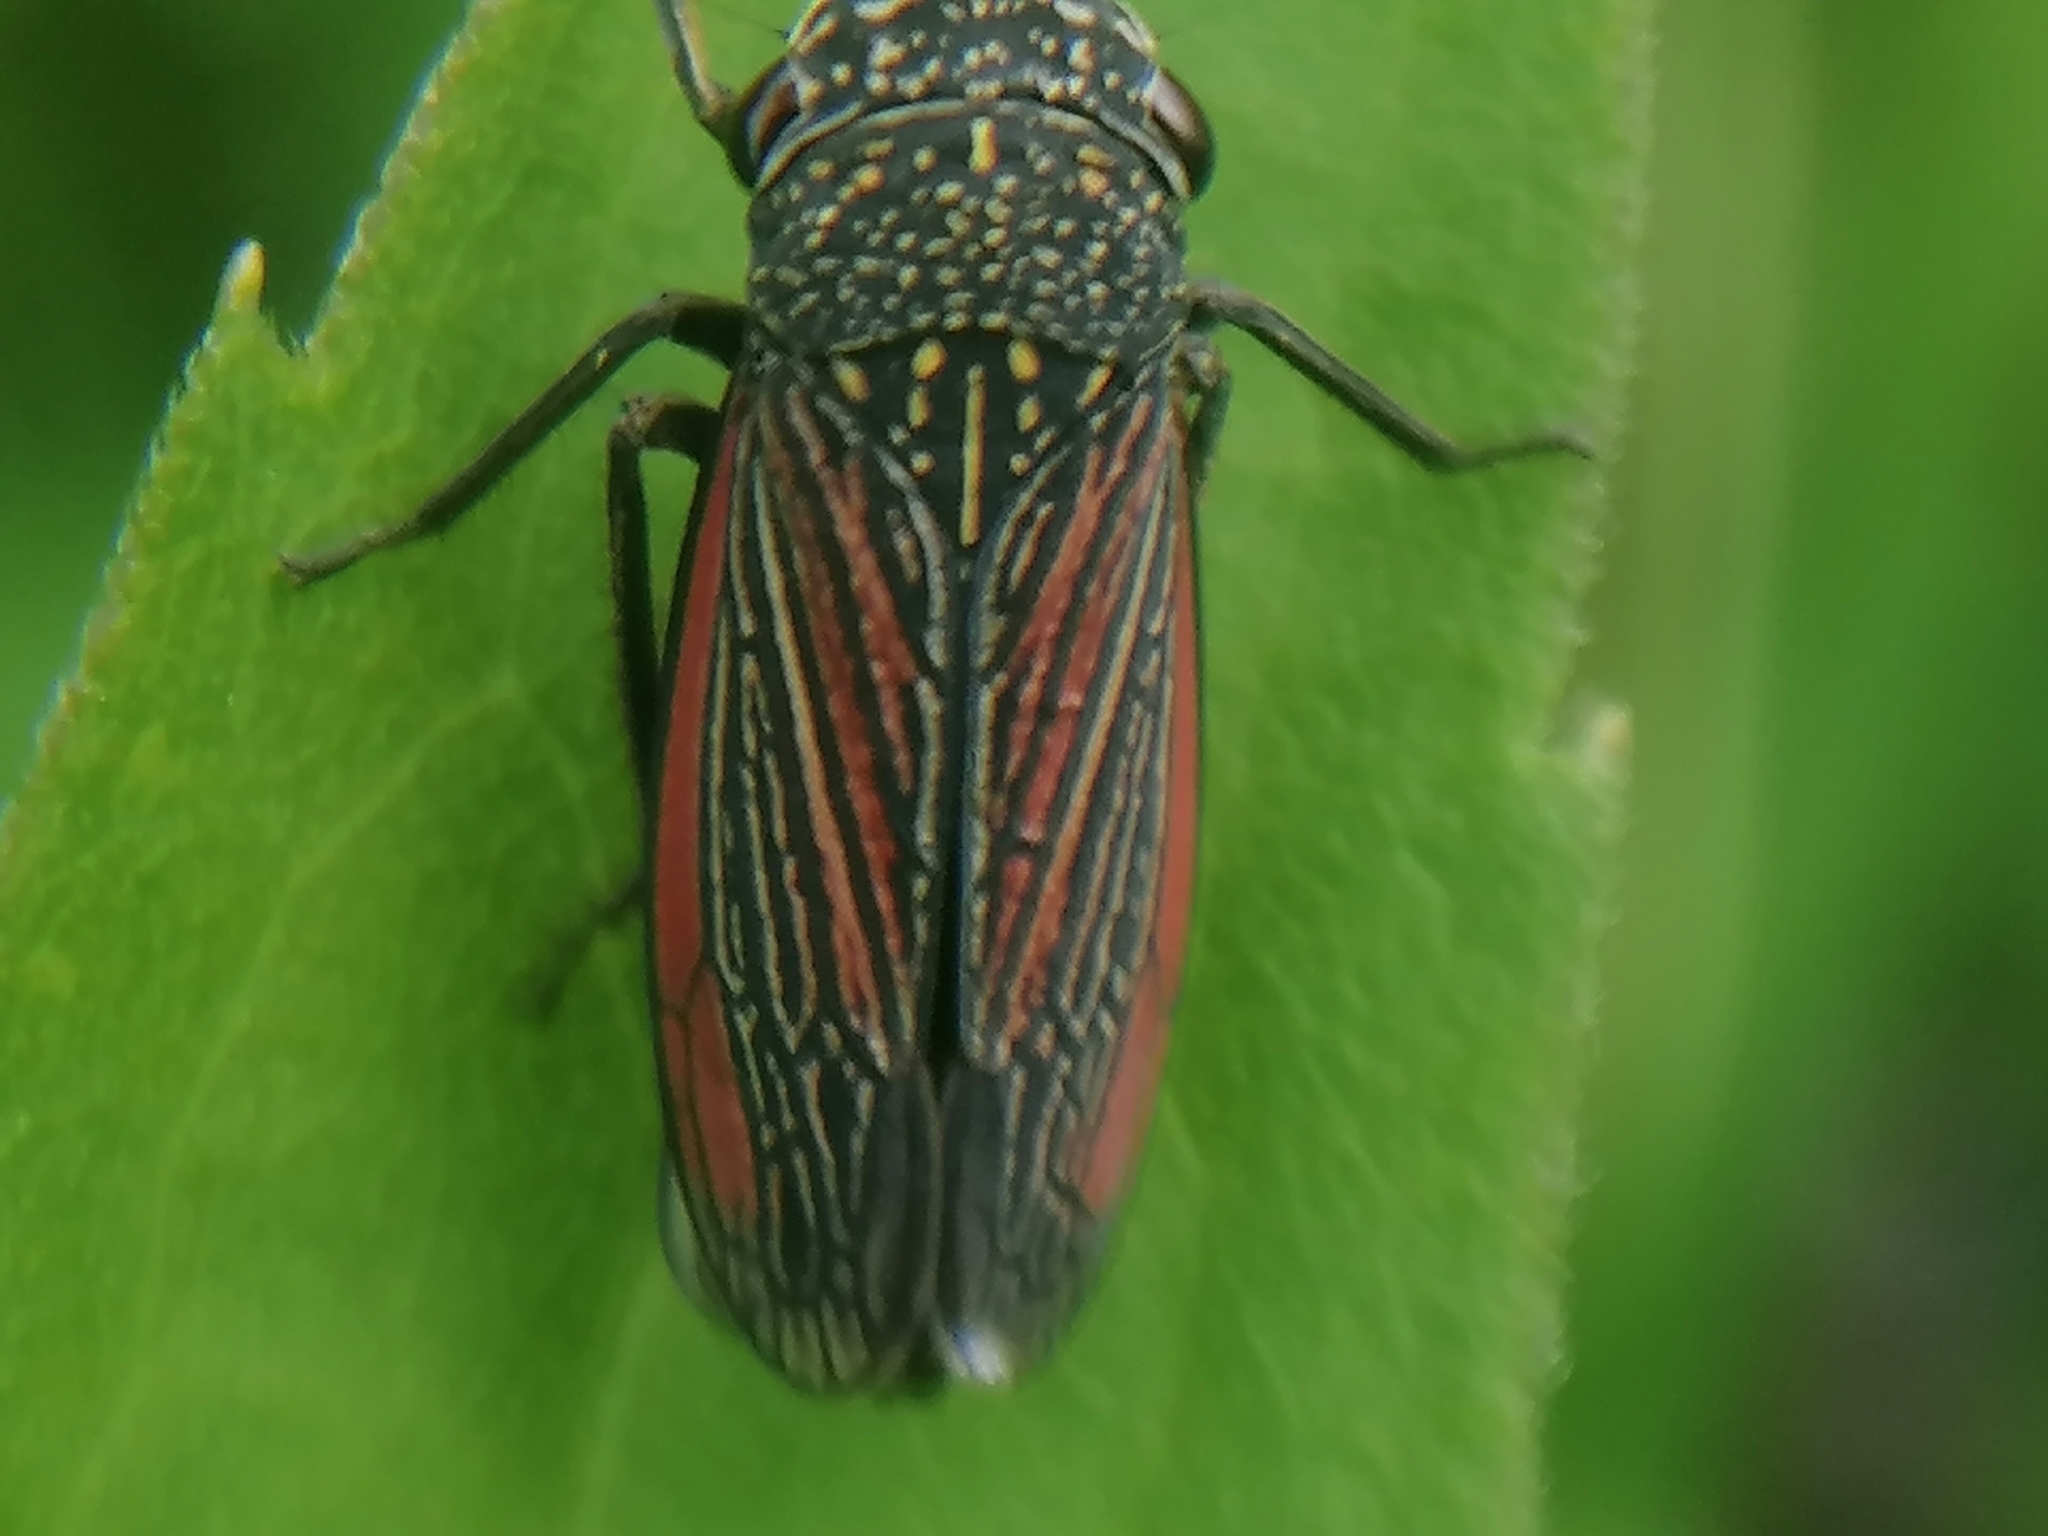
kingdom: Animalia
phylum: Arthropoda
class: Insecta
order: Hemiptera
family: Cicadellidae
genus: Cuerna
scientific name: Cuerna striata
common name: Striped leafhopper
